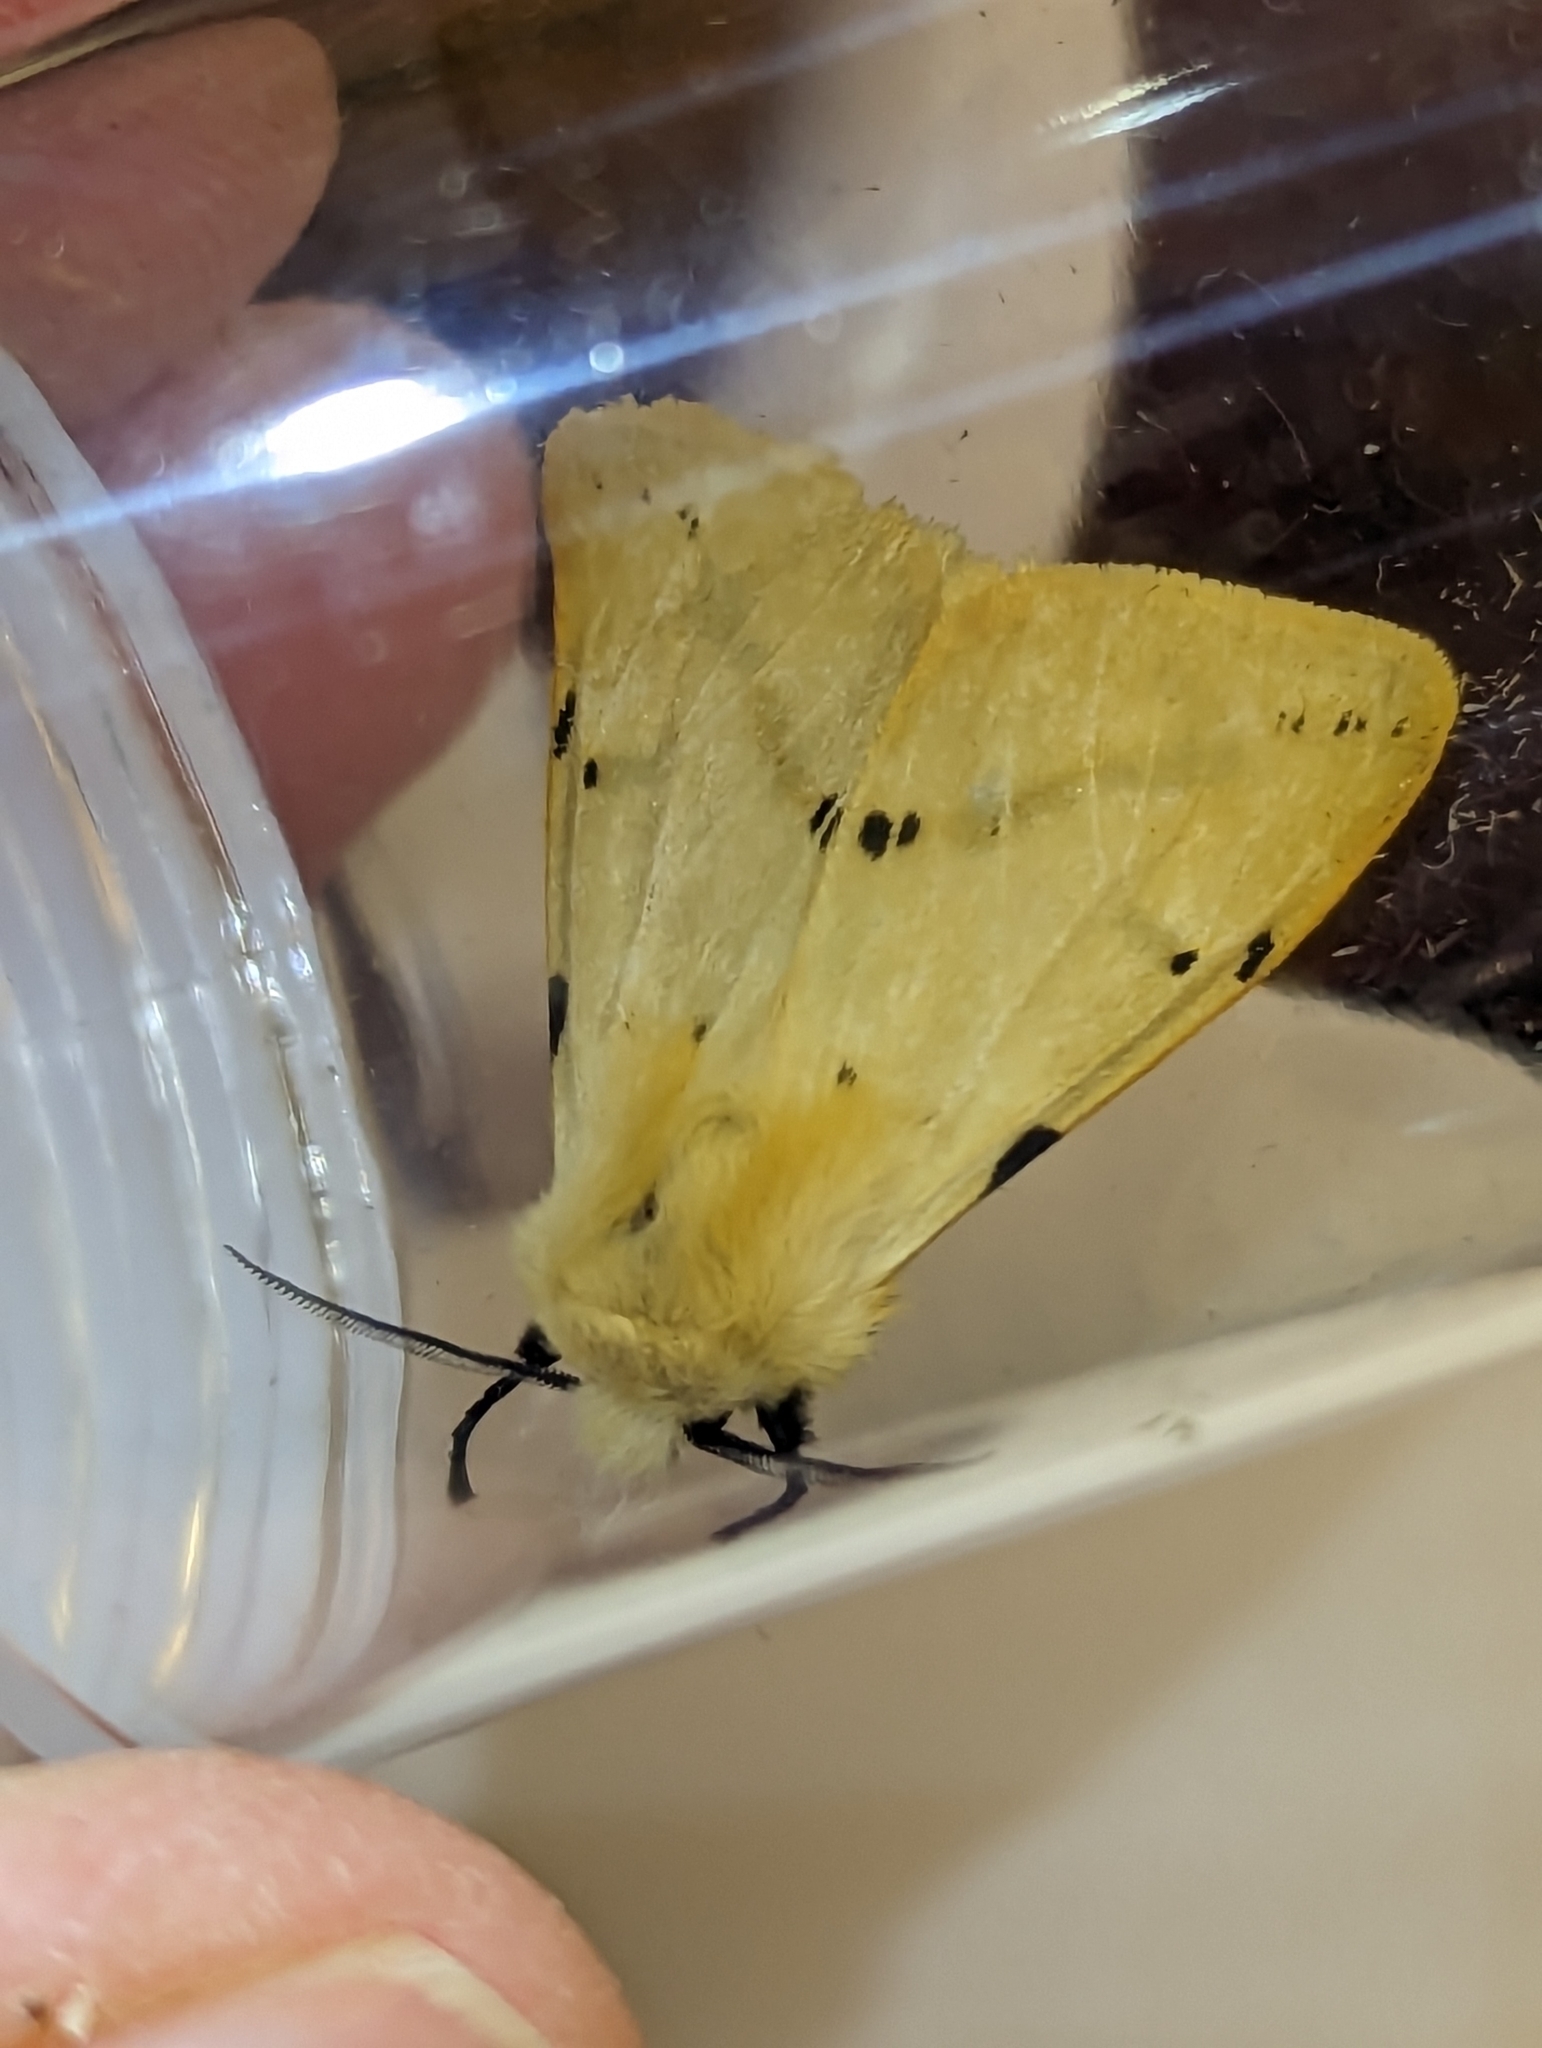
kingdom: Animalia
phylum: Arthropoda
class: Insecta
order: Lepidoptera
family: Erebidae
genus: Spilarctia
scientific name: Spilarctia lutea
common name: Buff ermine
